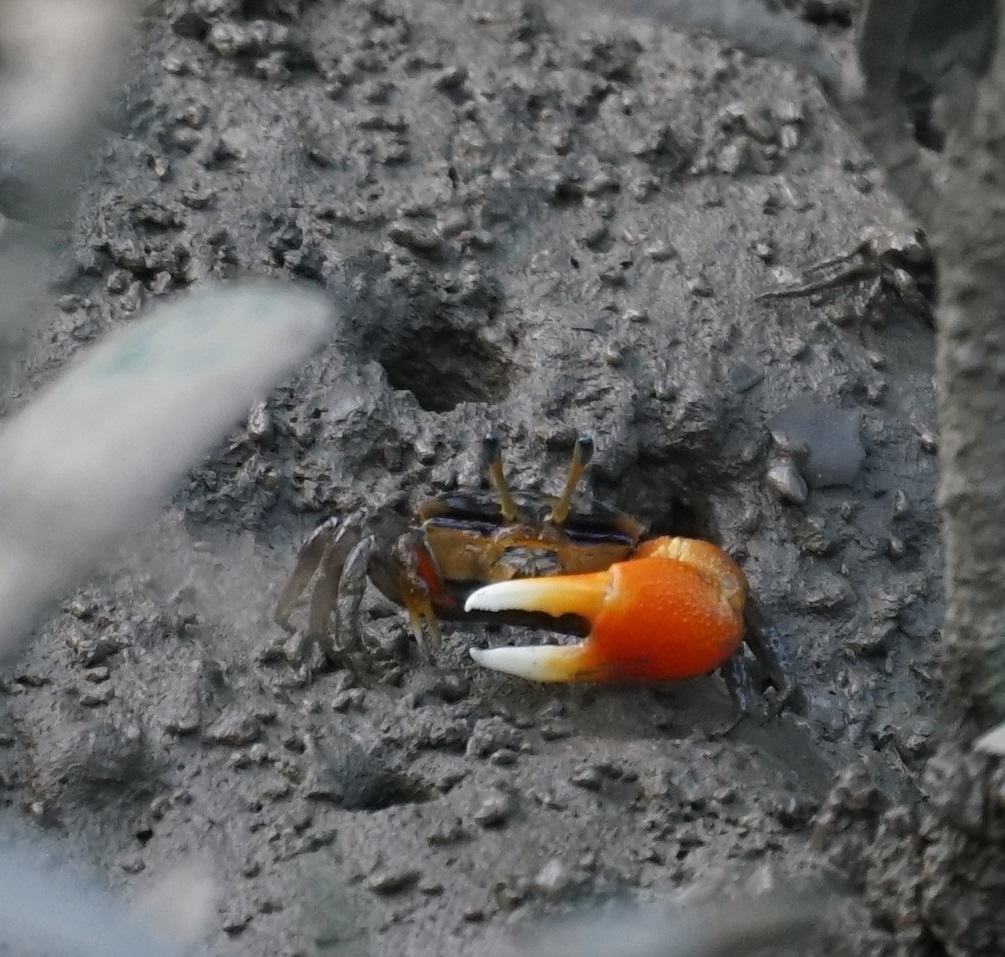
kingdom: Animalia
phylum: Arthropoda
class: Malacostraca
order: Decapoda
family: Ocypodidae
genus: Tubuca
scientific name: Tubuca coarctata
